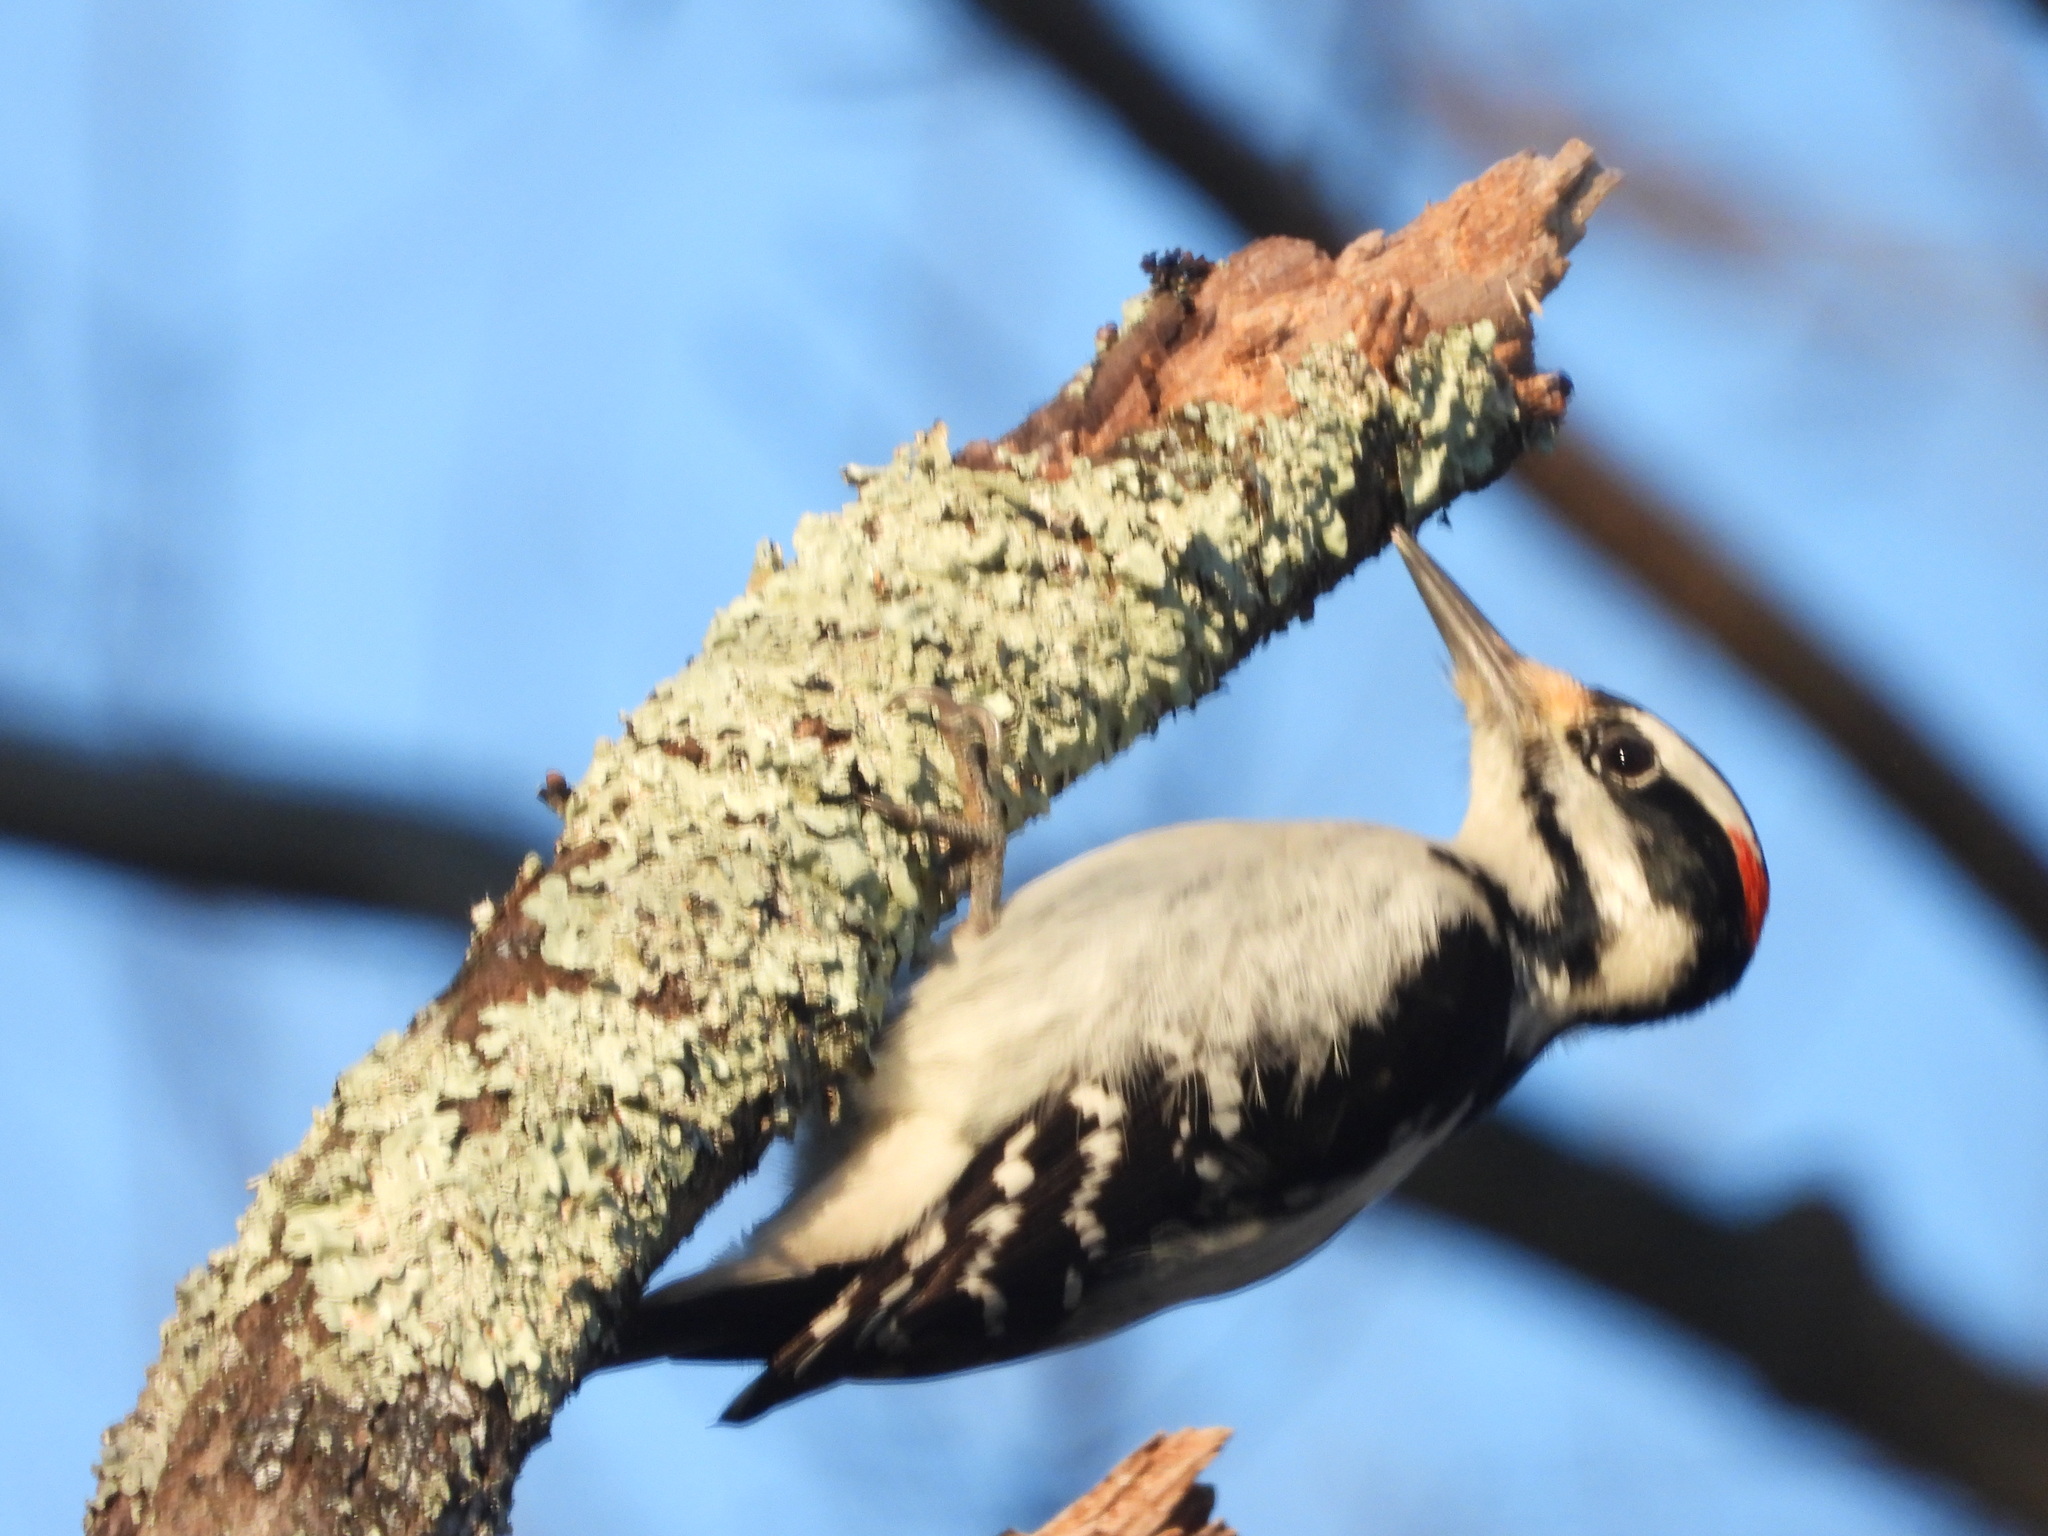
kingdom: Animalia
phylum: Chordata
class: Aves
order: Piciformes
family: Picidae
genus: Leuconotopicus
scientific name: Leuconotopicus villosus
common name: Hairy woodpecker
